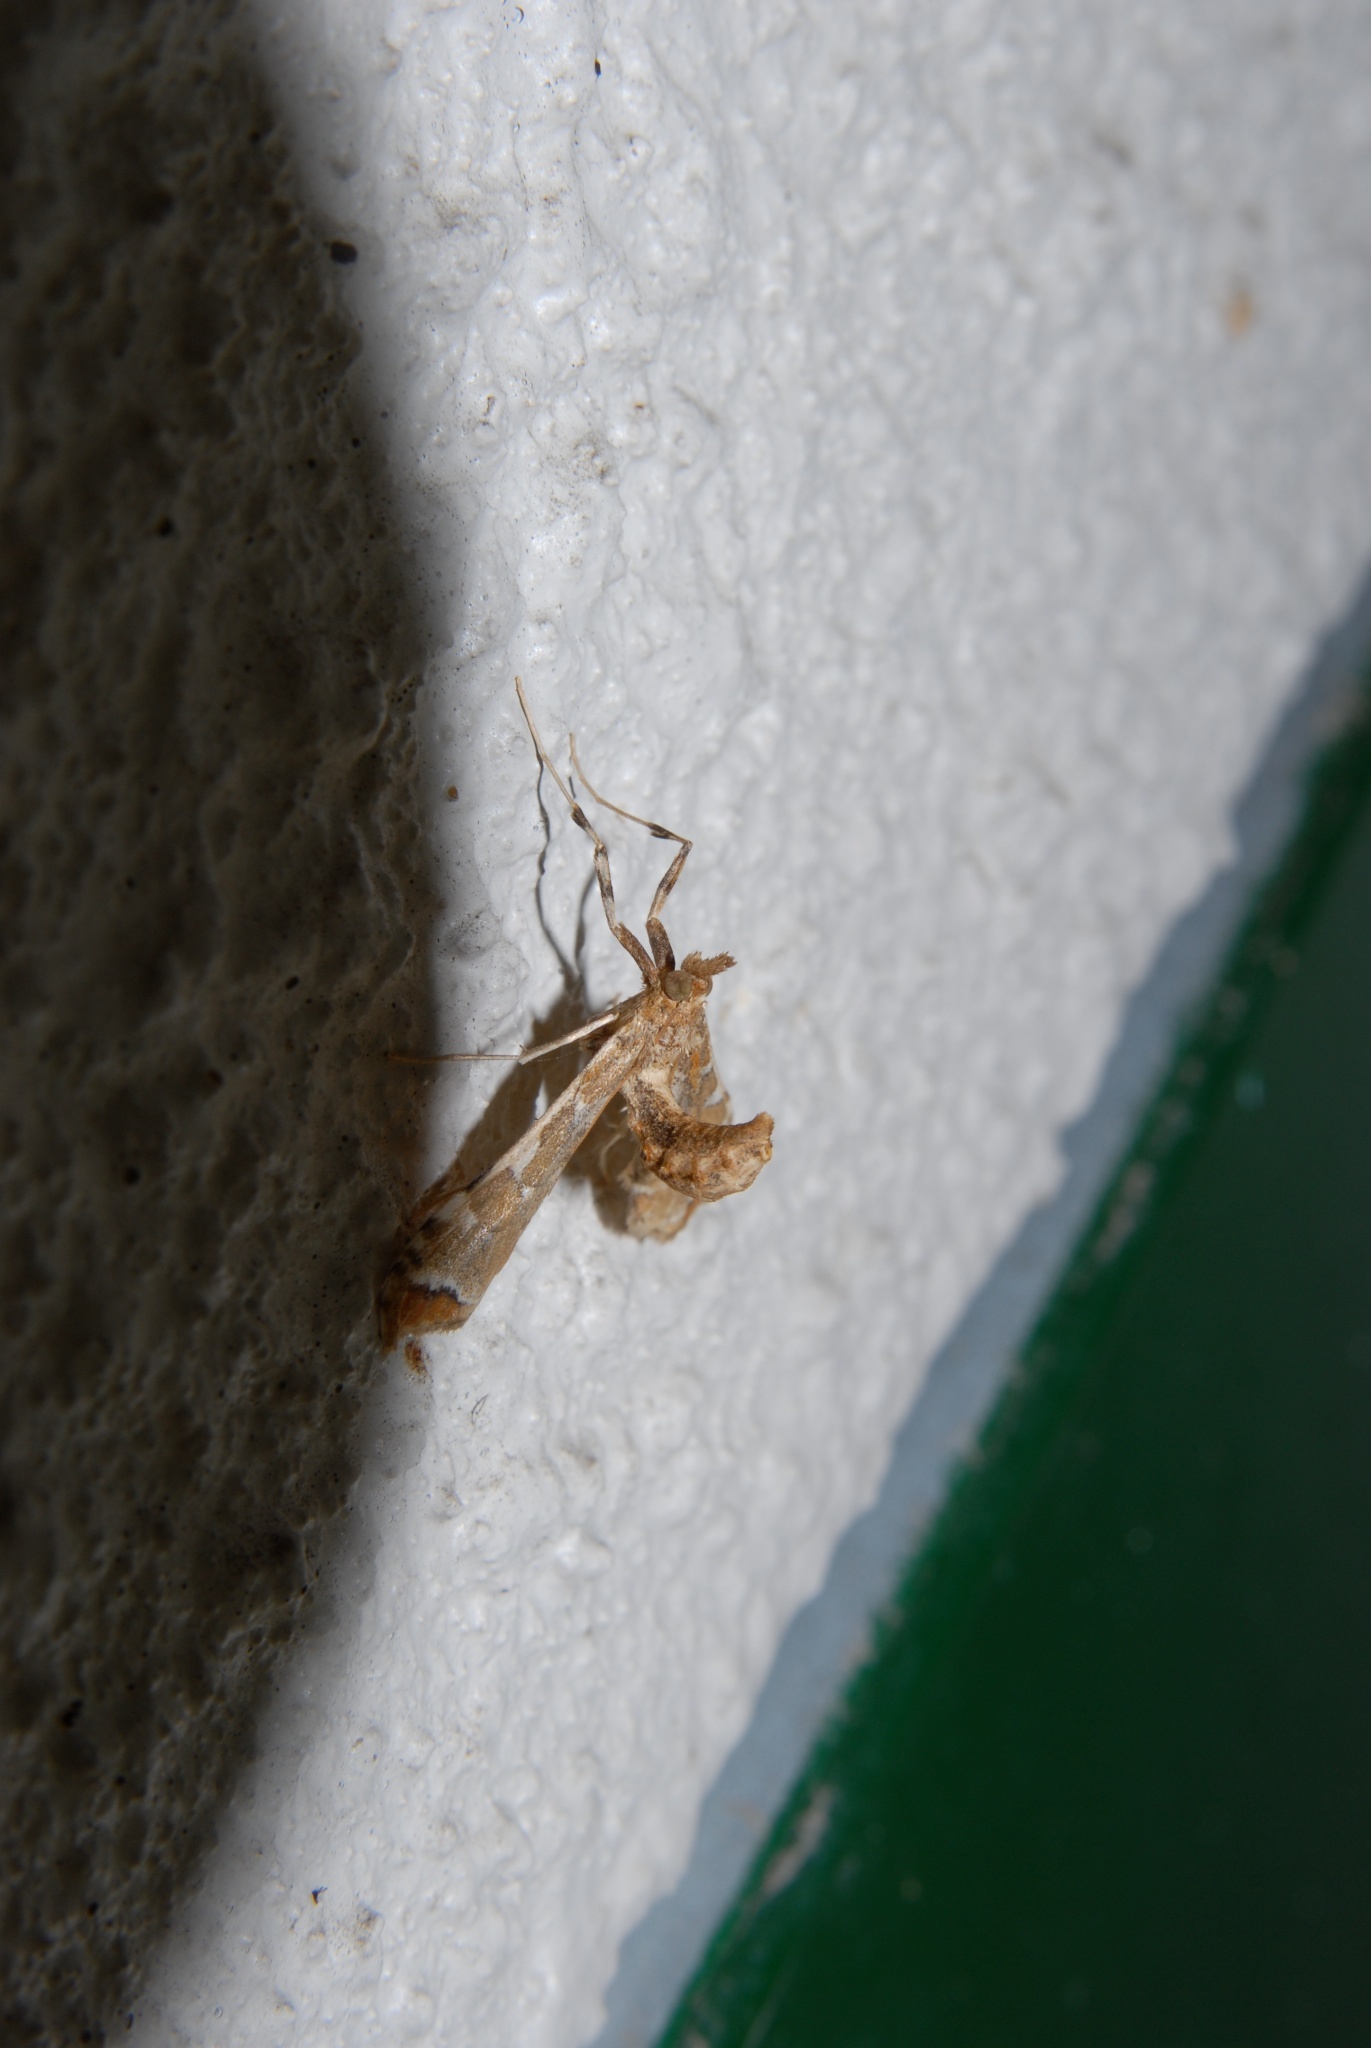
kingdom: Animalia
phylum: Arthropoda
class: Insecta
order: Lepidoptera
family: Crambidae
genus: Sceliodes
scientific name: Sceliodes cordalis
